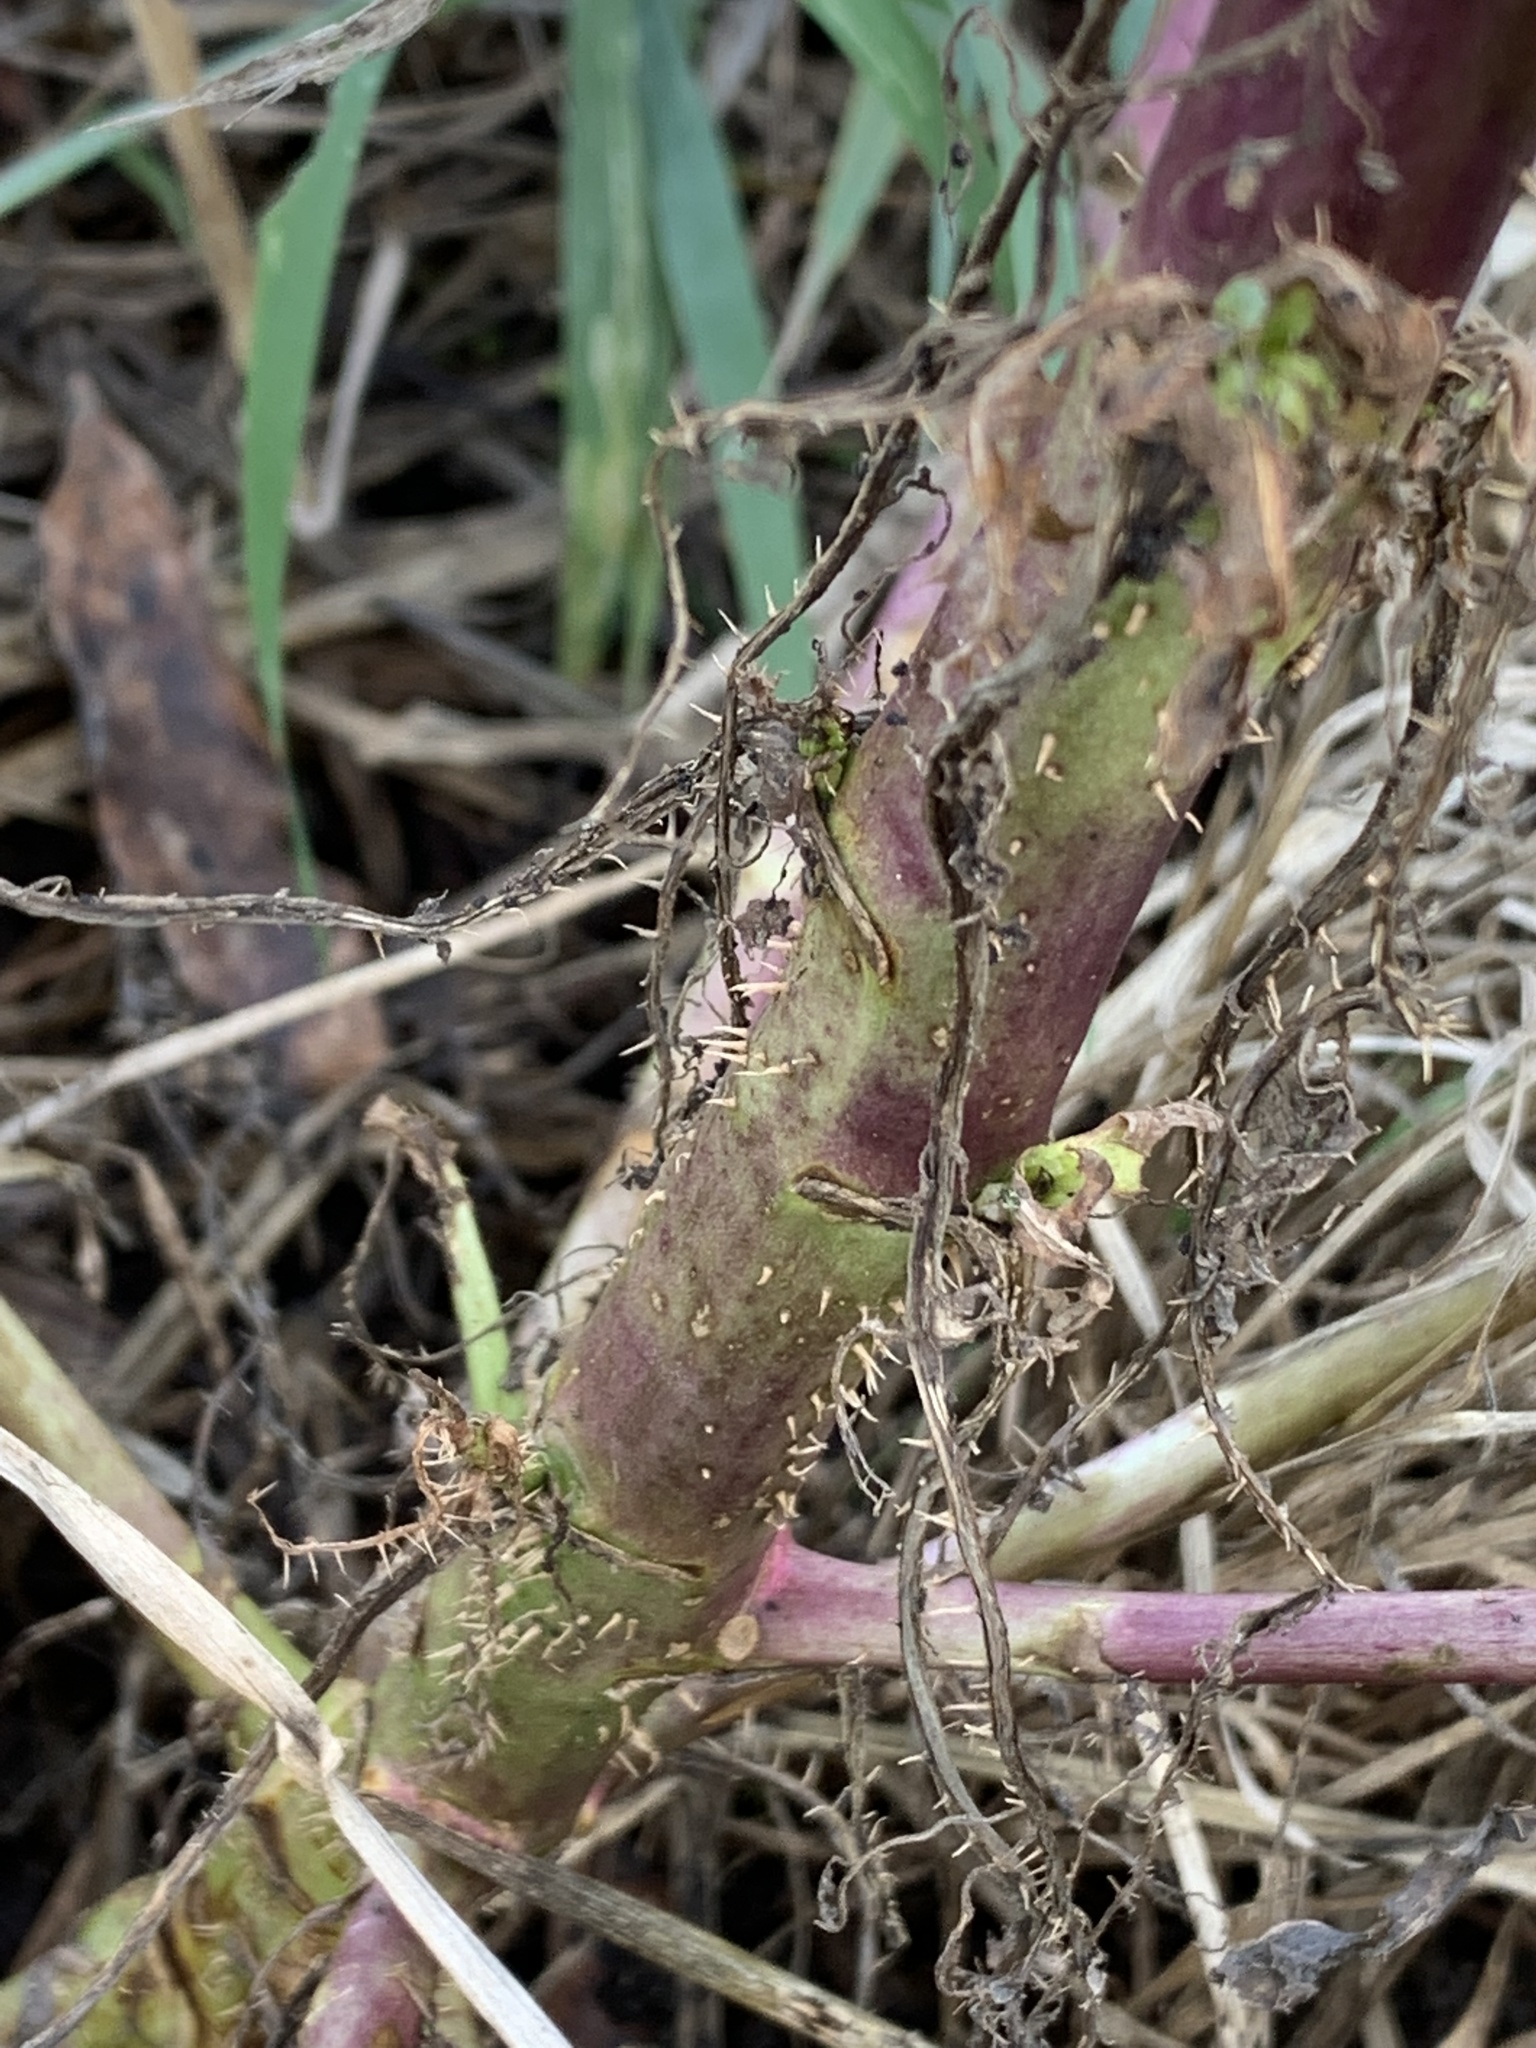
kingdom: Plantae
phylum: Tracheophyta
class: Magnoliopsida
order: Asterales
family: Asteraceae
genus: Lactuca
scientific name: Lactuca serriola
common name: Prickly lettuce
